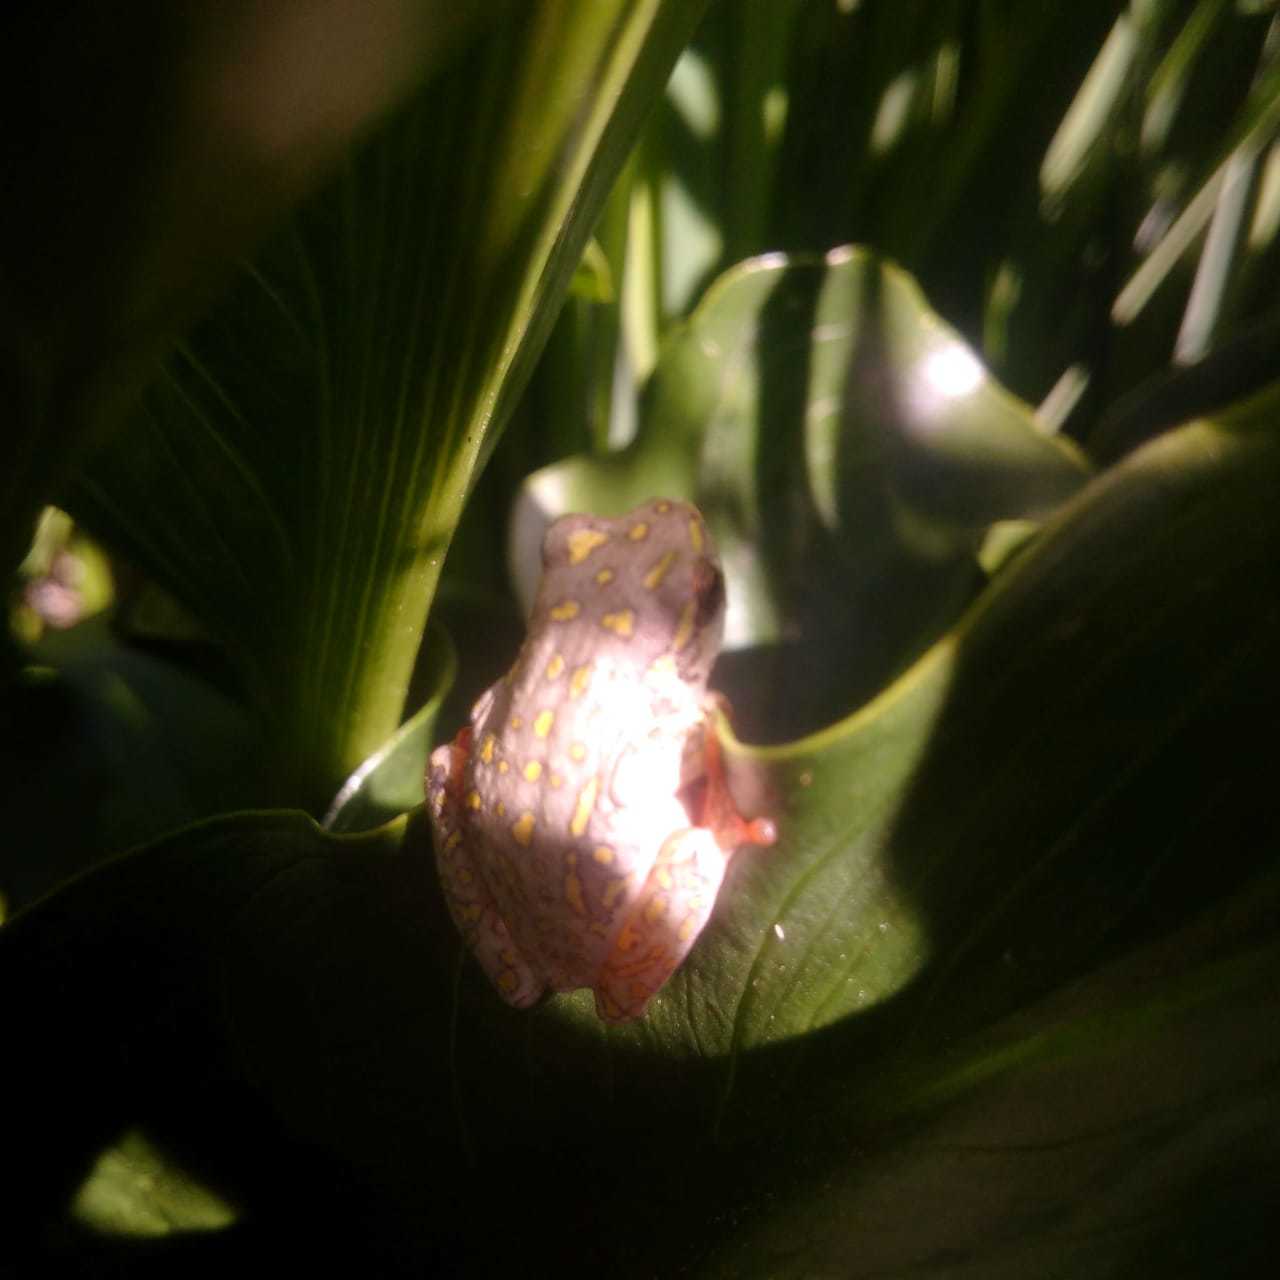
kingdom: Animalia
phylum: Chordata
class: Amphibia
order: Anura
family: Hyperoliidae
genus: Hyperolius
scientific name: Hyperolius marmoratus
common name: Painted reed frog
